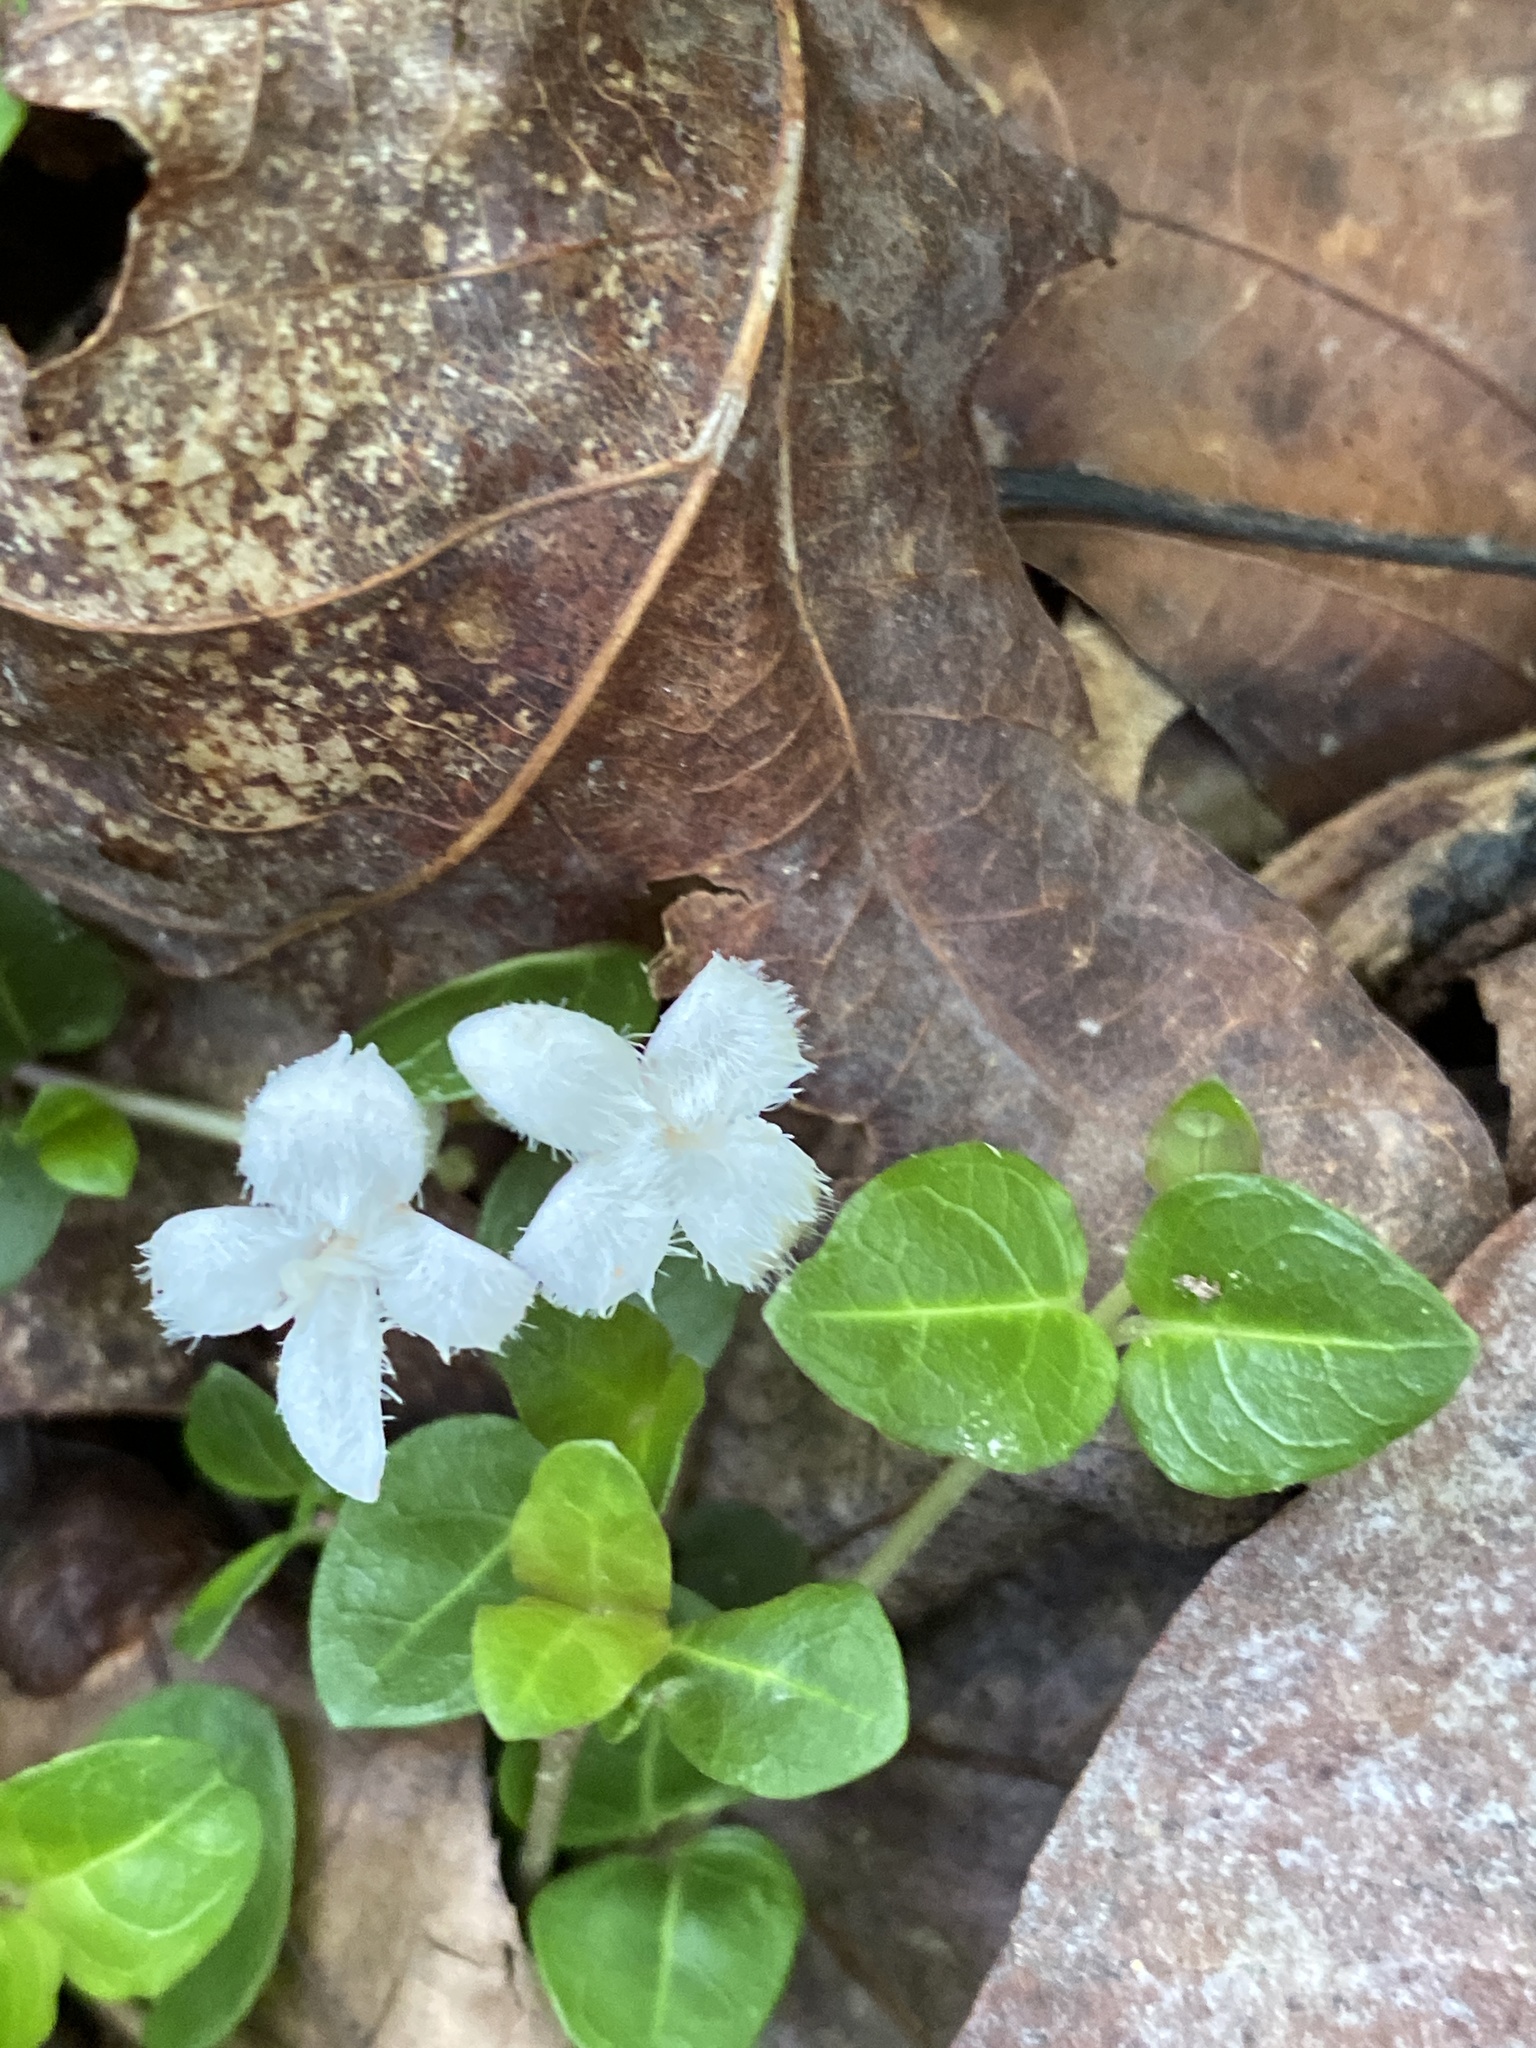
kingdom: Plantae
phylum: Tracheophyta
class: Magnoliopsida
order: Gentianales
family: Rubiaceae
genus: Mitchella
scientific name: Mitchella repens
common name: Partridge-berry
